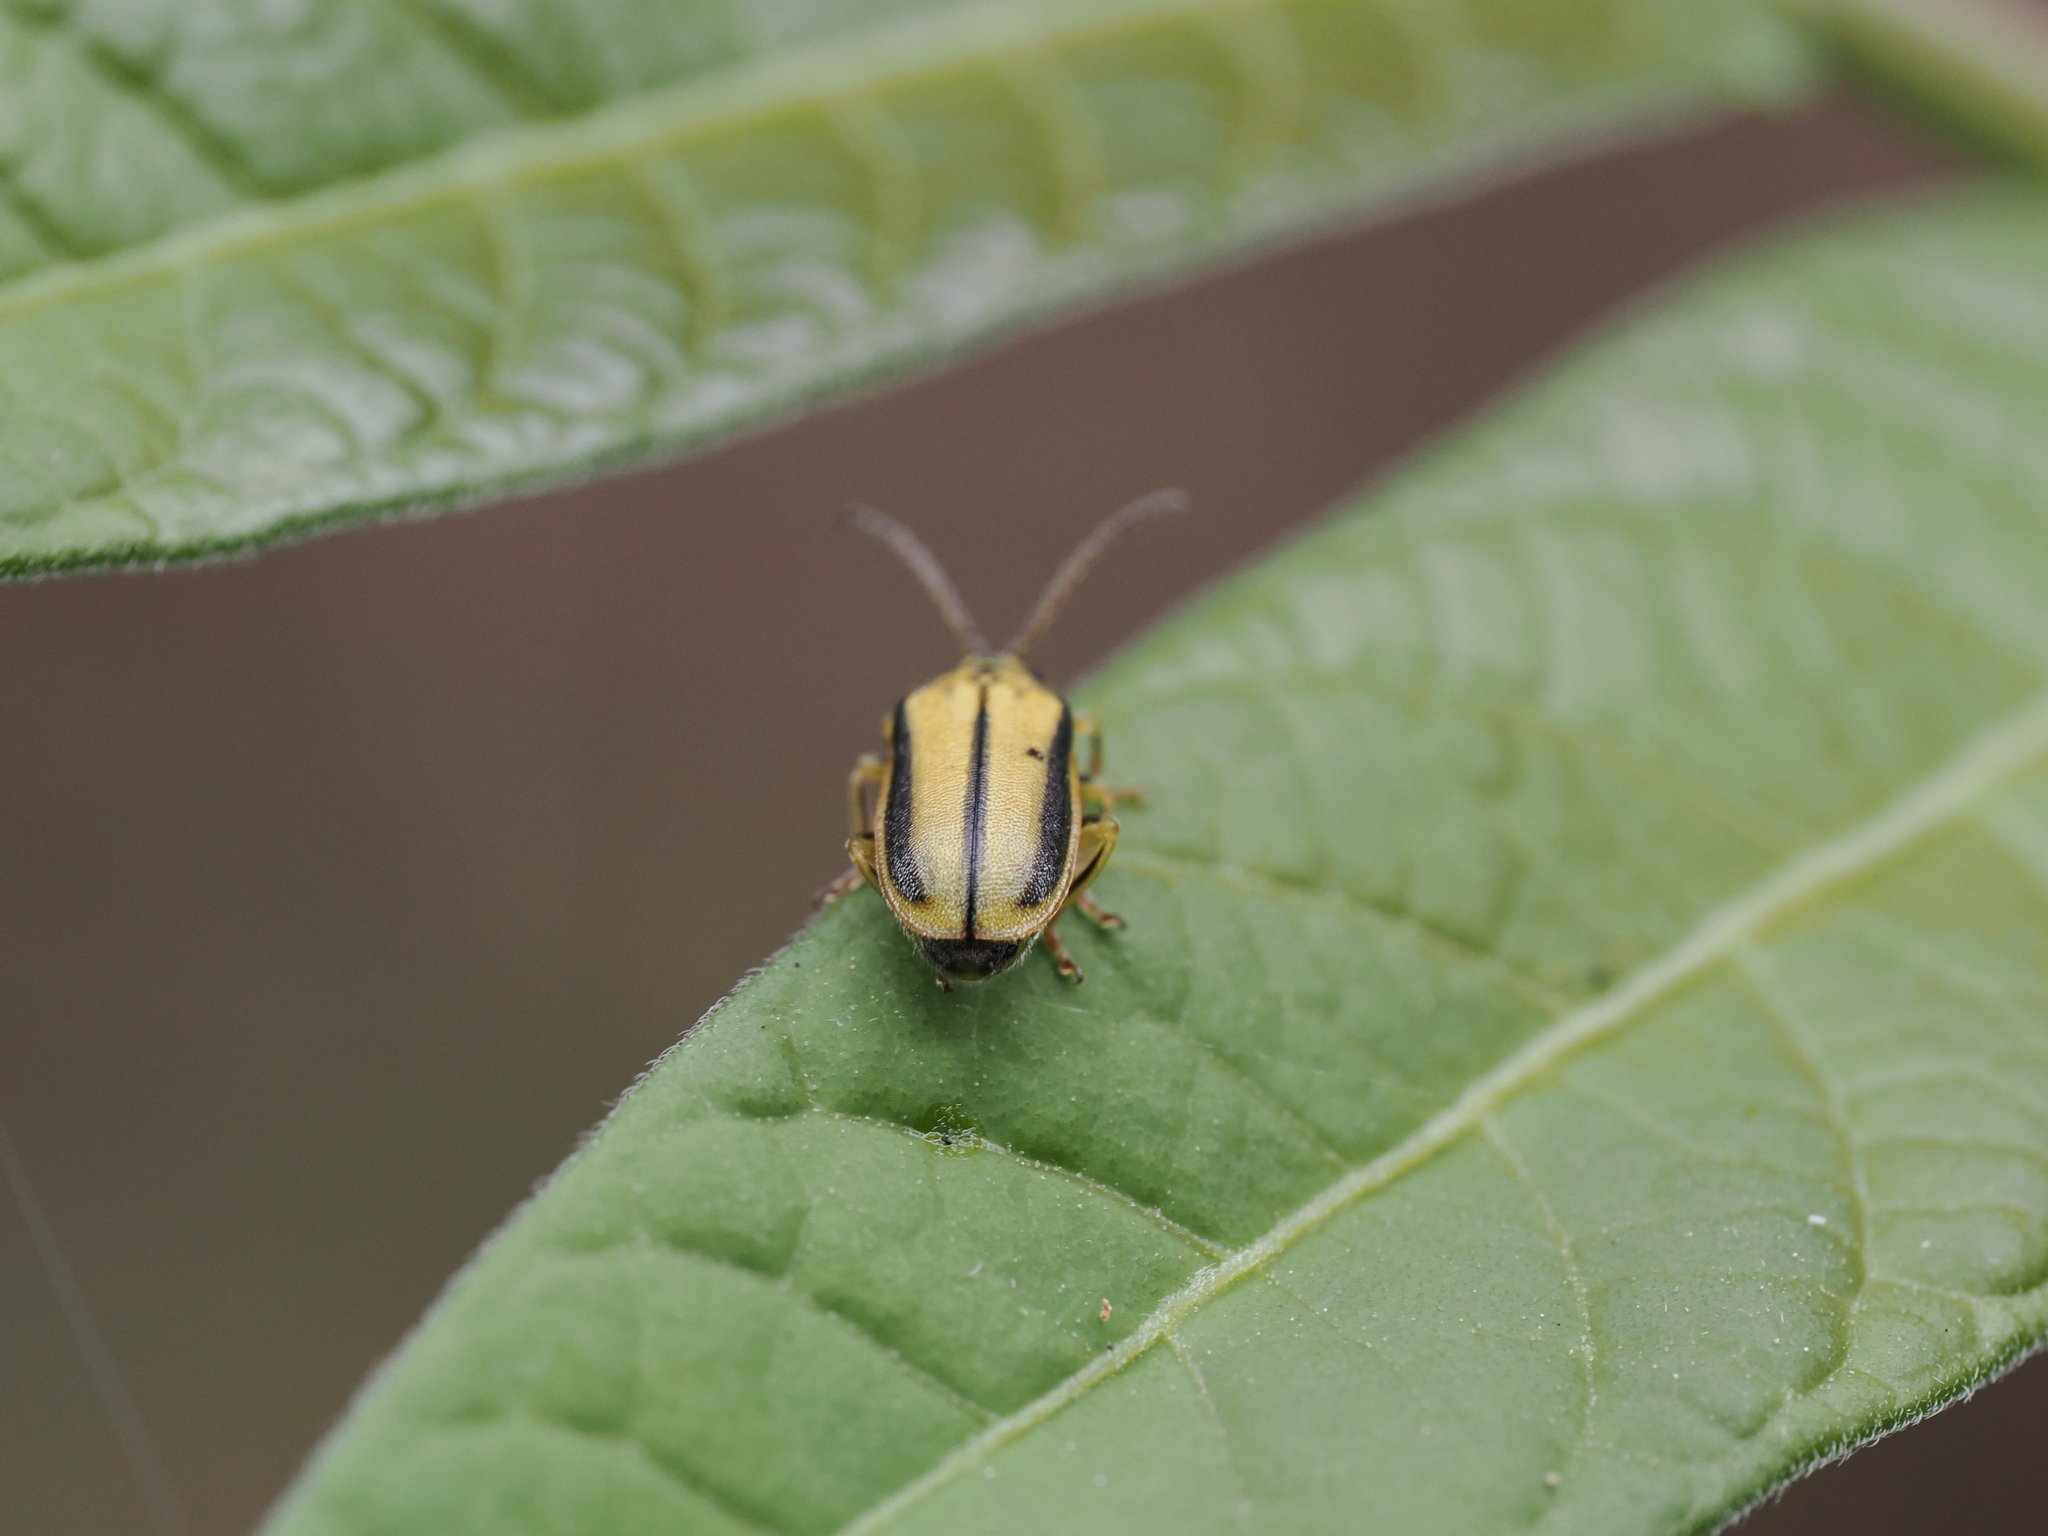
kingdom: Animalia
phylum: Arthropoda
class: Insecta
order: Coleoptera
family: Chrysomelidae
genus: Xanthogaleruca
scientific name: Xanthogaleruca luteola
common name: Elm leaf beetle
